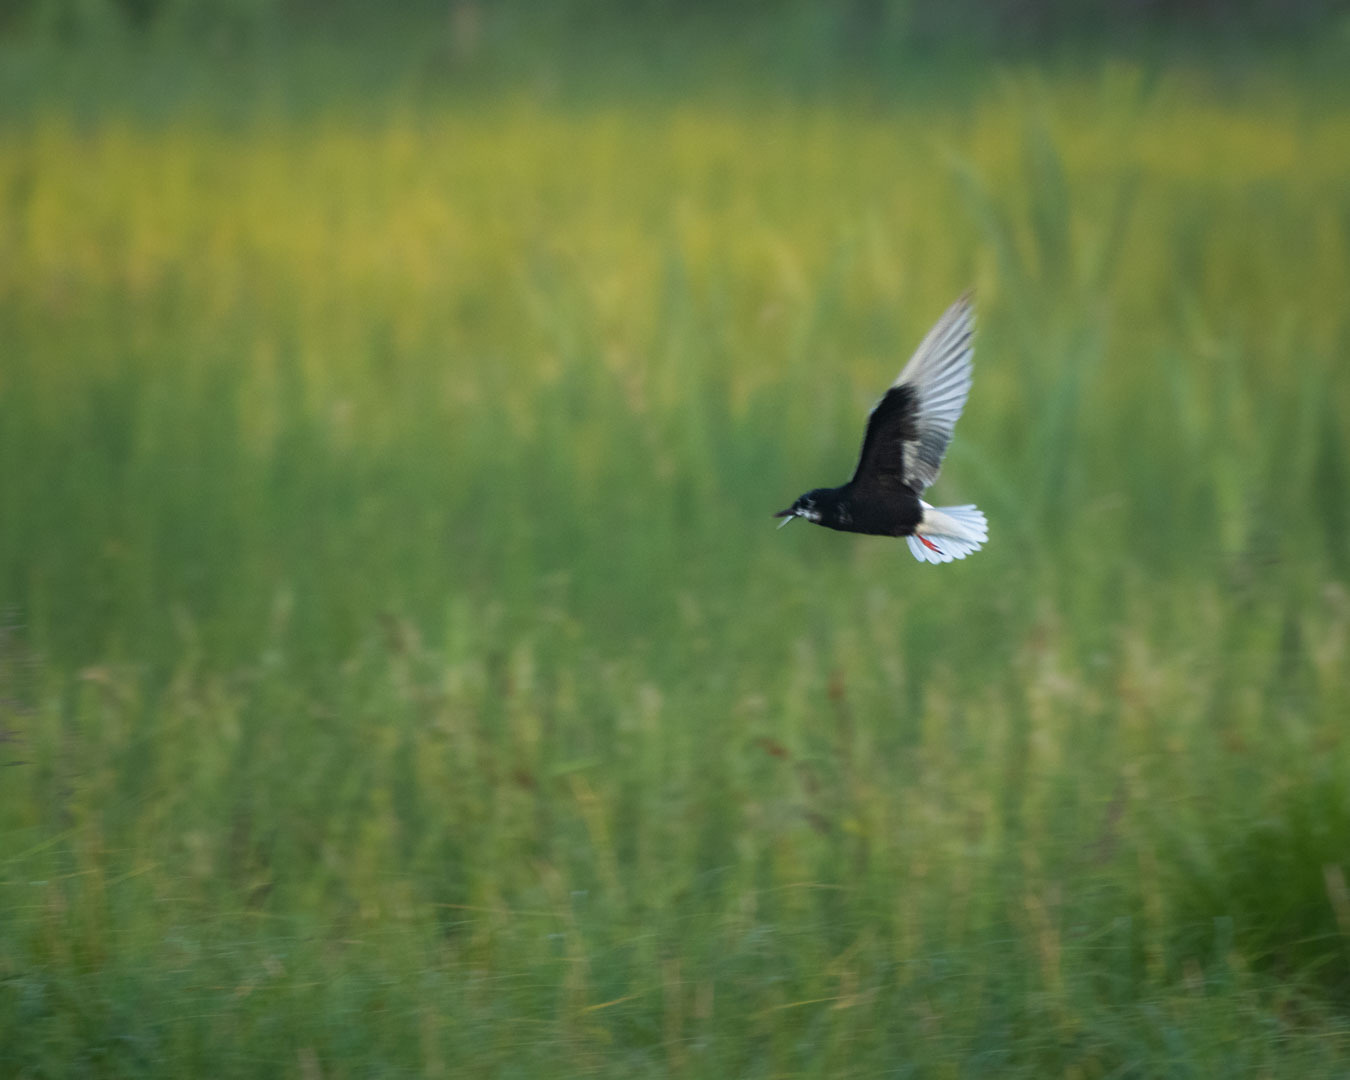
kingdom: Animalia
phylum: Chordata
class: Aves
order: Charadriiformes
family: Laridae
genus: Chlidonias
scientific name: Chlidonias leucopterus
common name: White-winged tern
